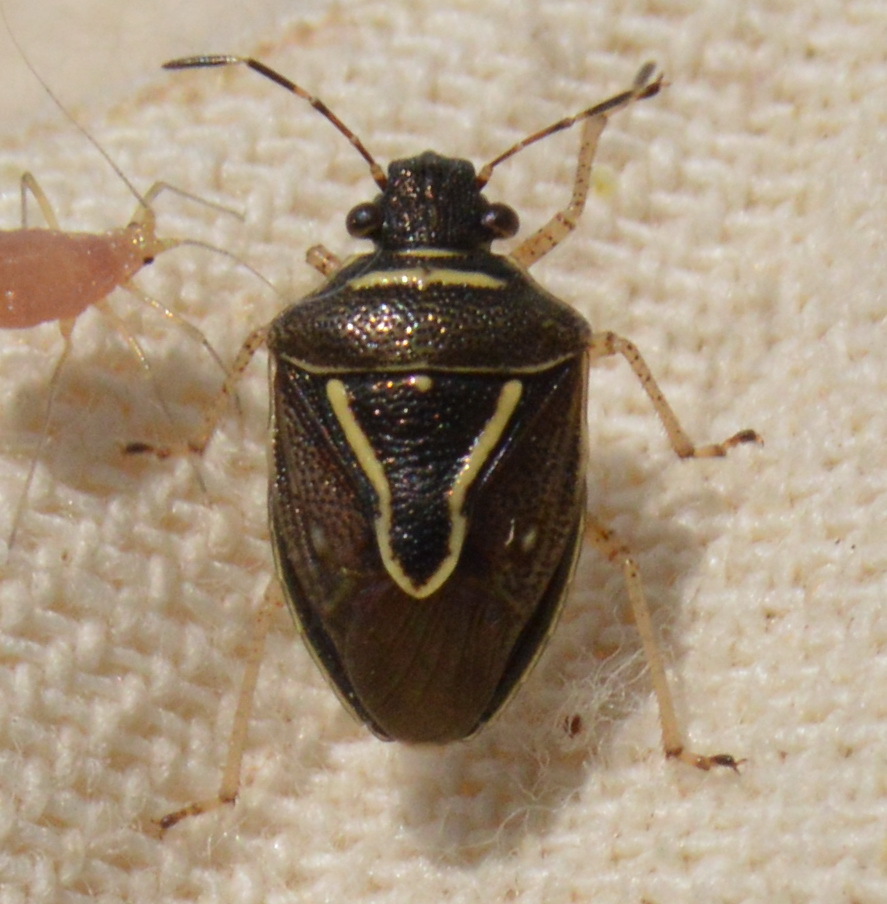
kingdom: Animalia
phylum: Arthropoda
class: Insecta
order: Hemiptera
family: Pentatomidae
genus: Mormidea
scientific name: Mormidea lugens
